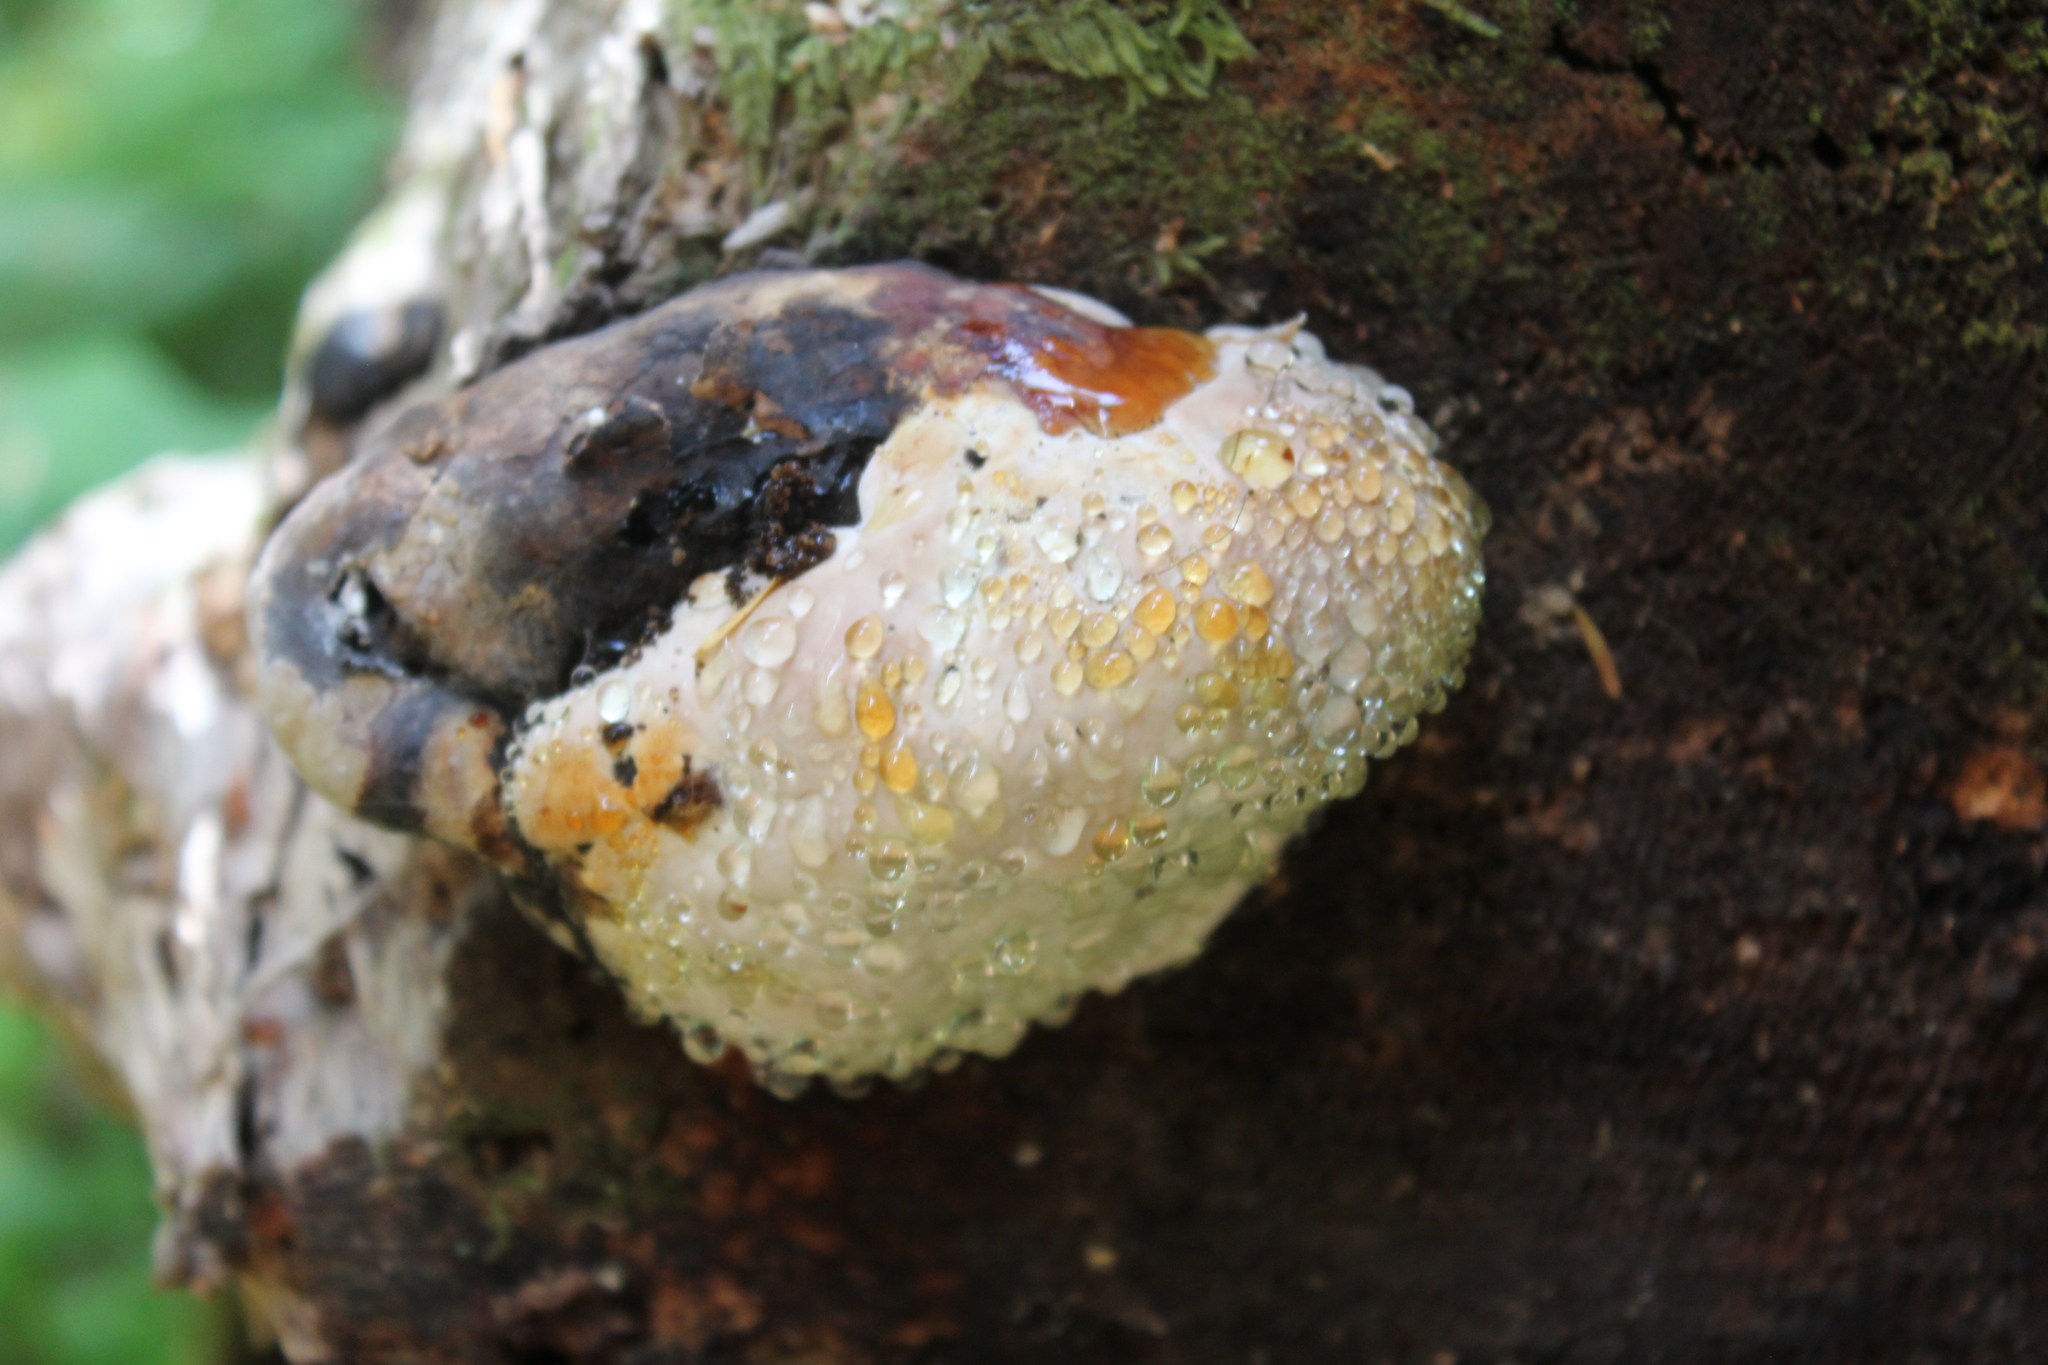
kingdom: Fungi
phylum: Basidiomycota
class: Agaricomycetes
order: Polyporales
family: Fomitopsidaceae
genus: Fomitopsis
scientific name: Fomitopsis mounceae
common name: Northern red belt
